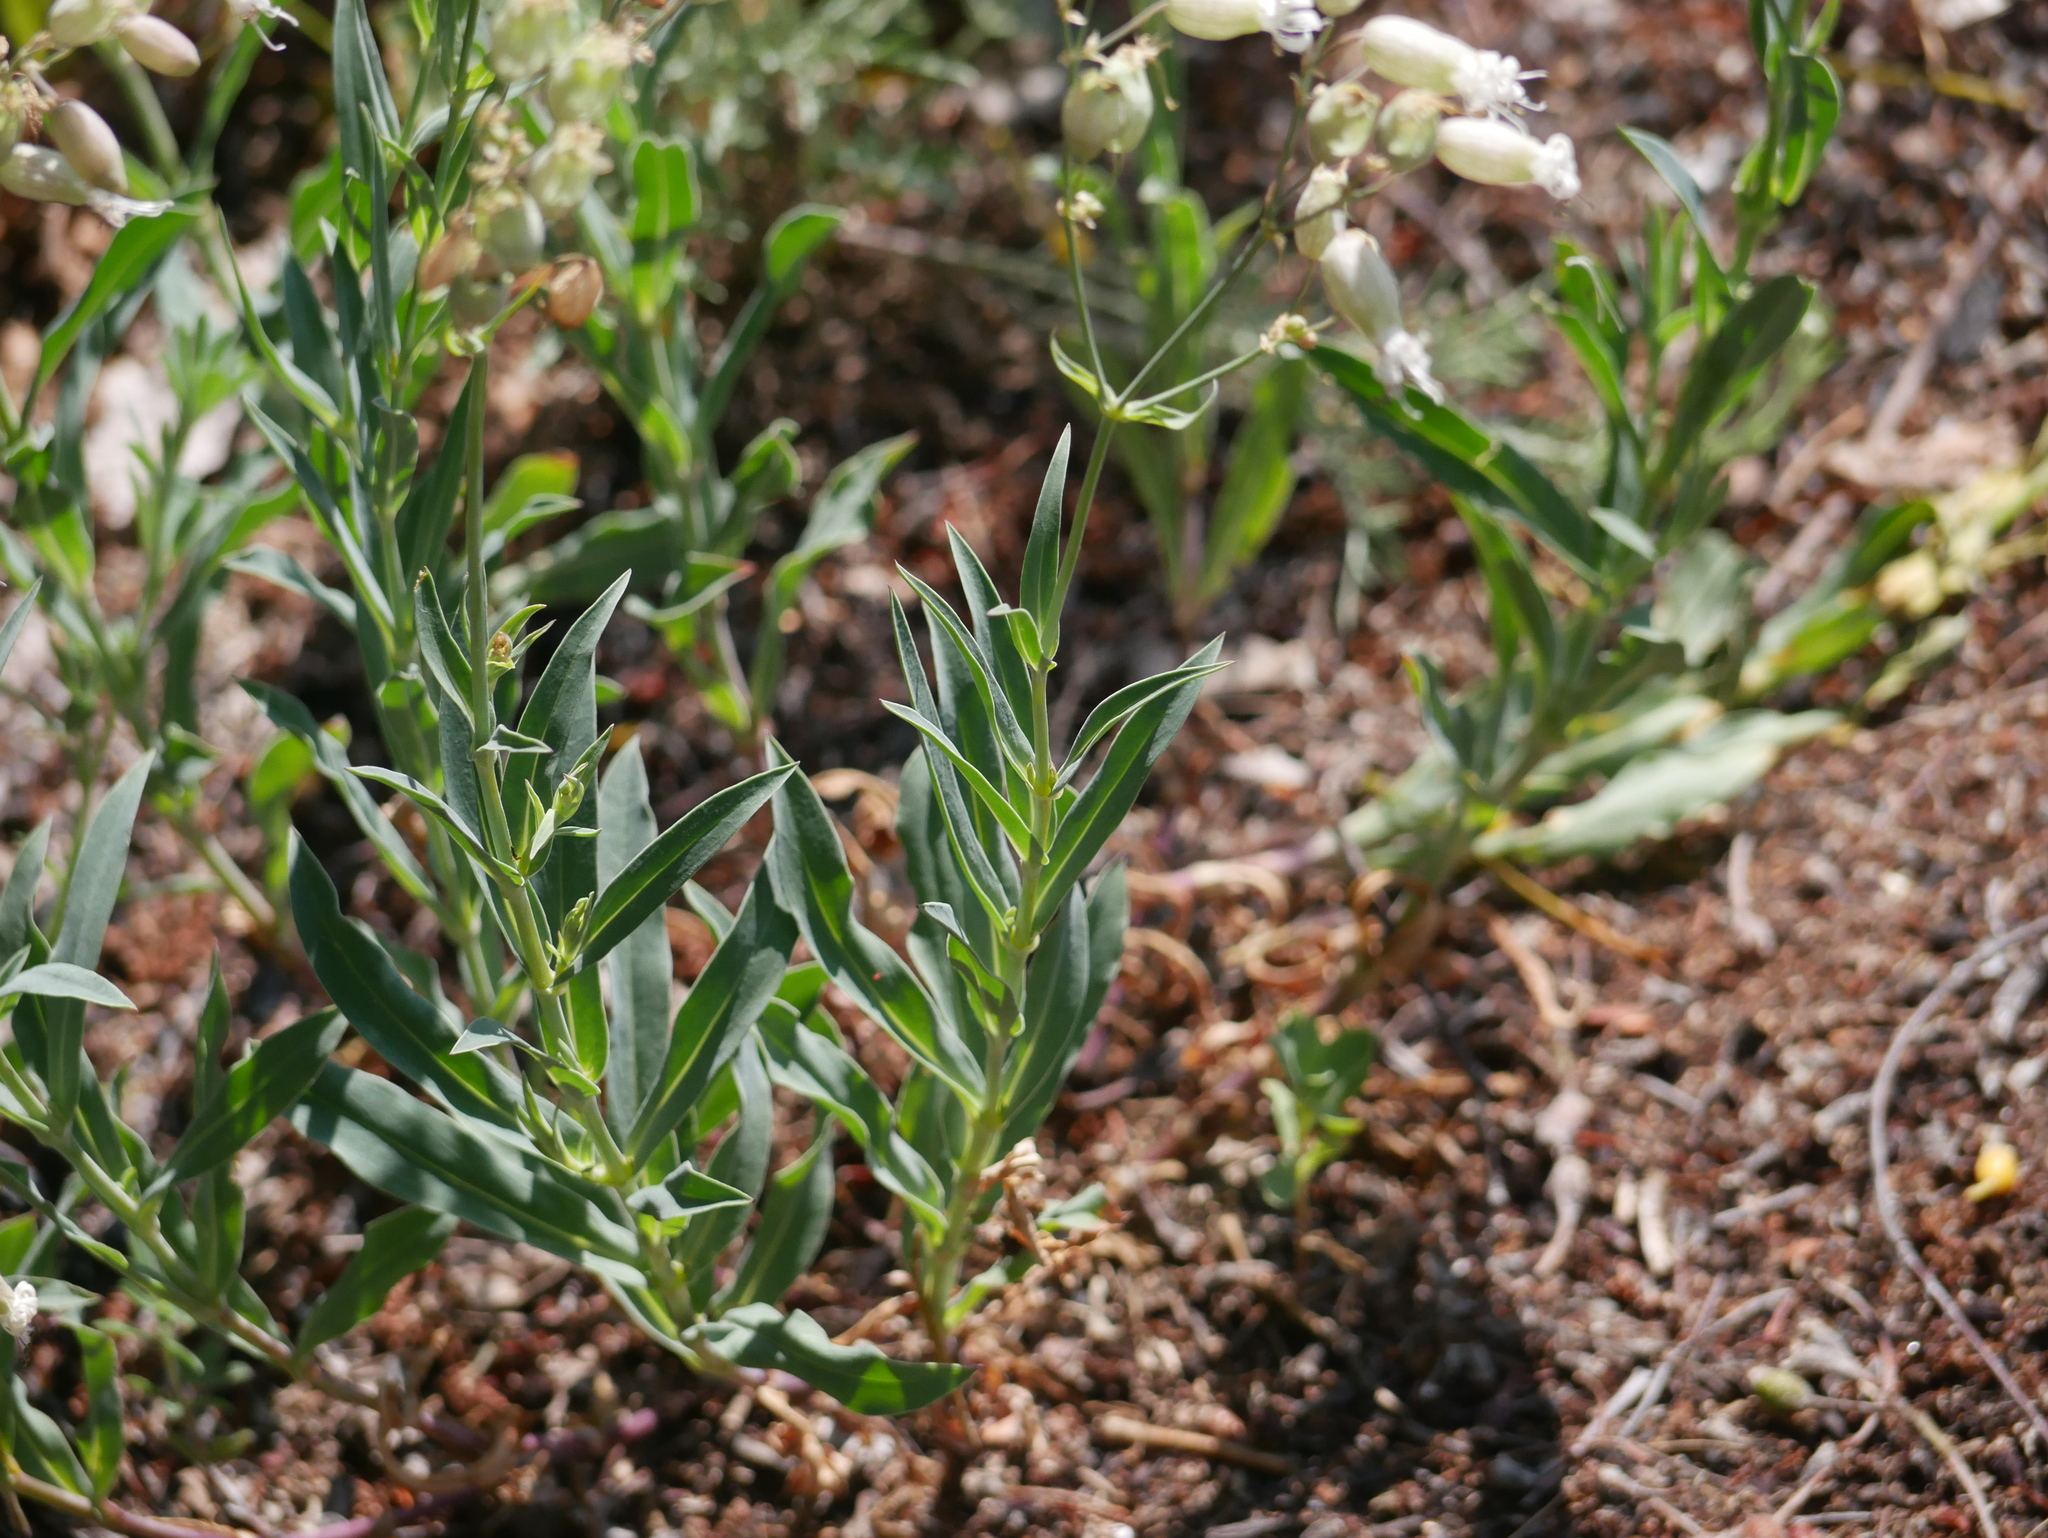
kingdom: Plantae
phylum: Tracheophyta
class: Magnoliopsida
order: Caryophyllales
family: Caryophyllaceae
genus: Silene
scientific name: Silene vulgaris
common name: Bladder campion
